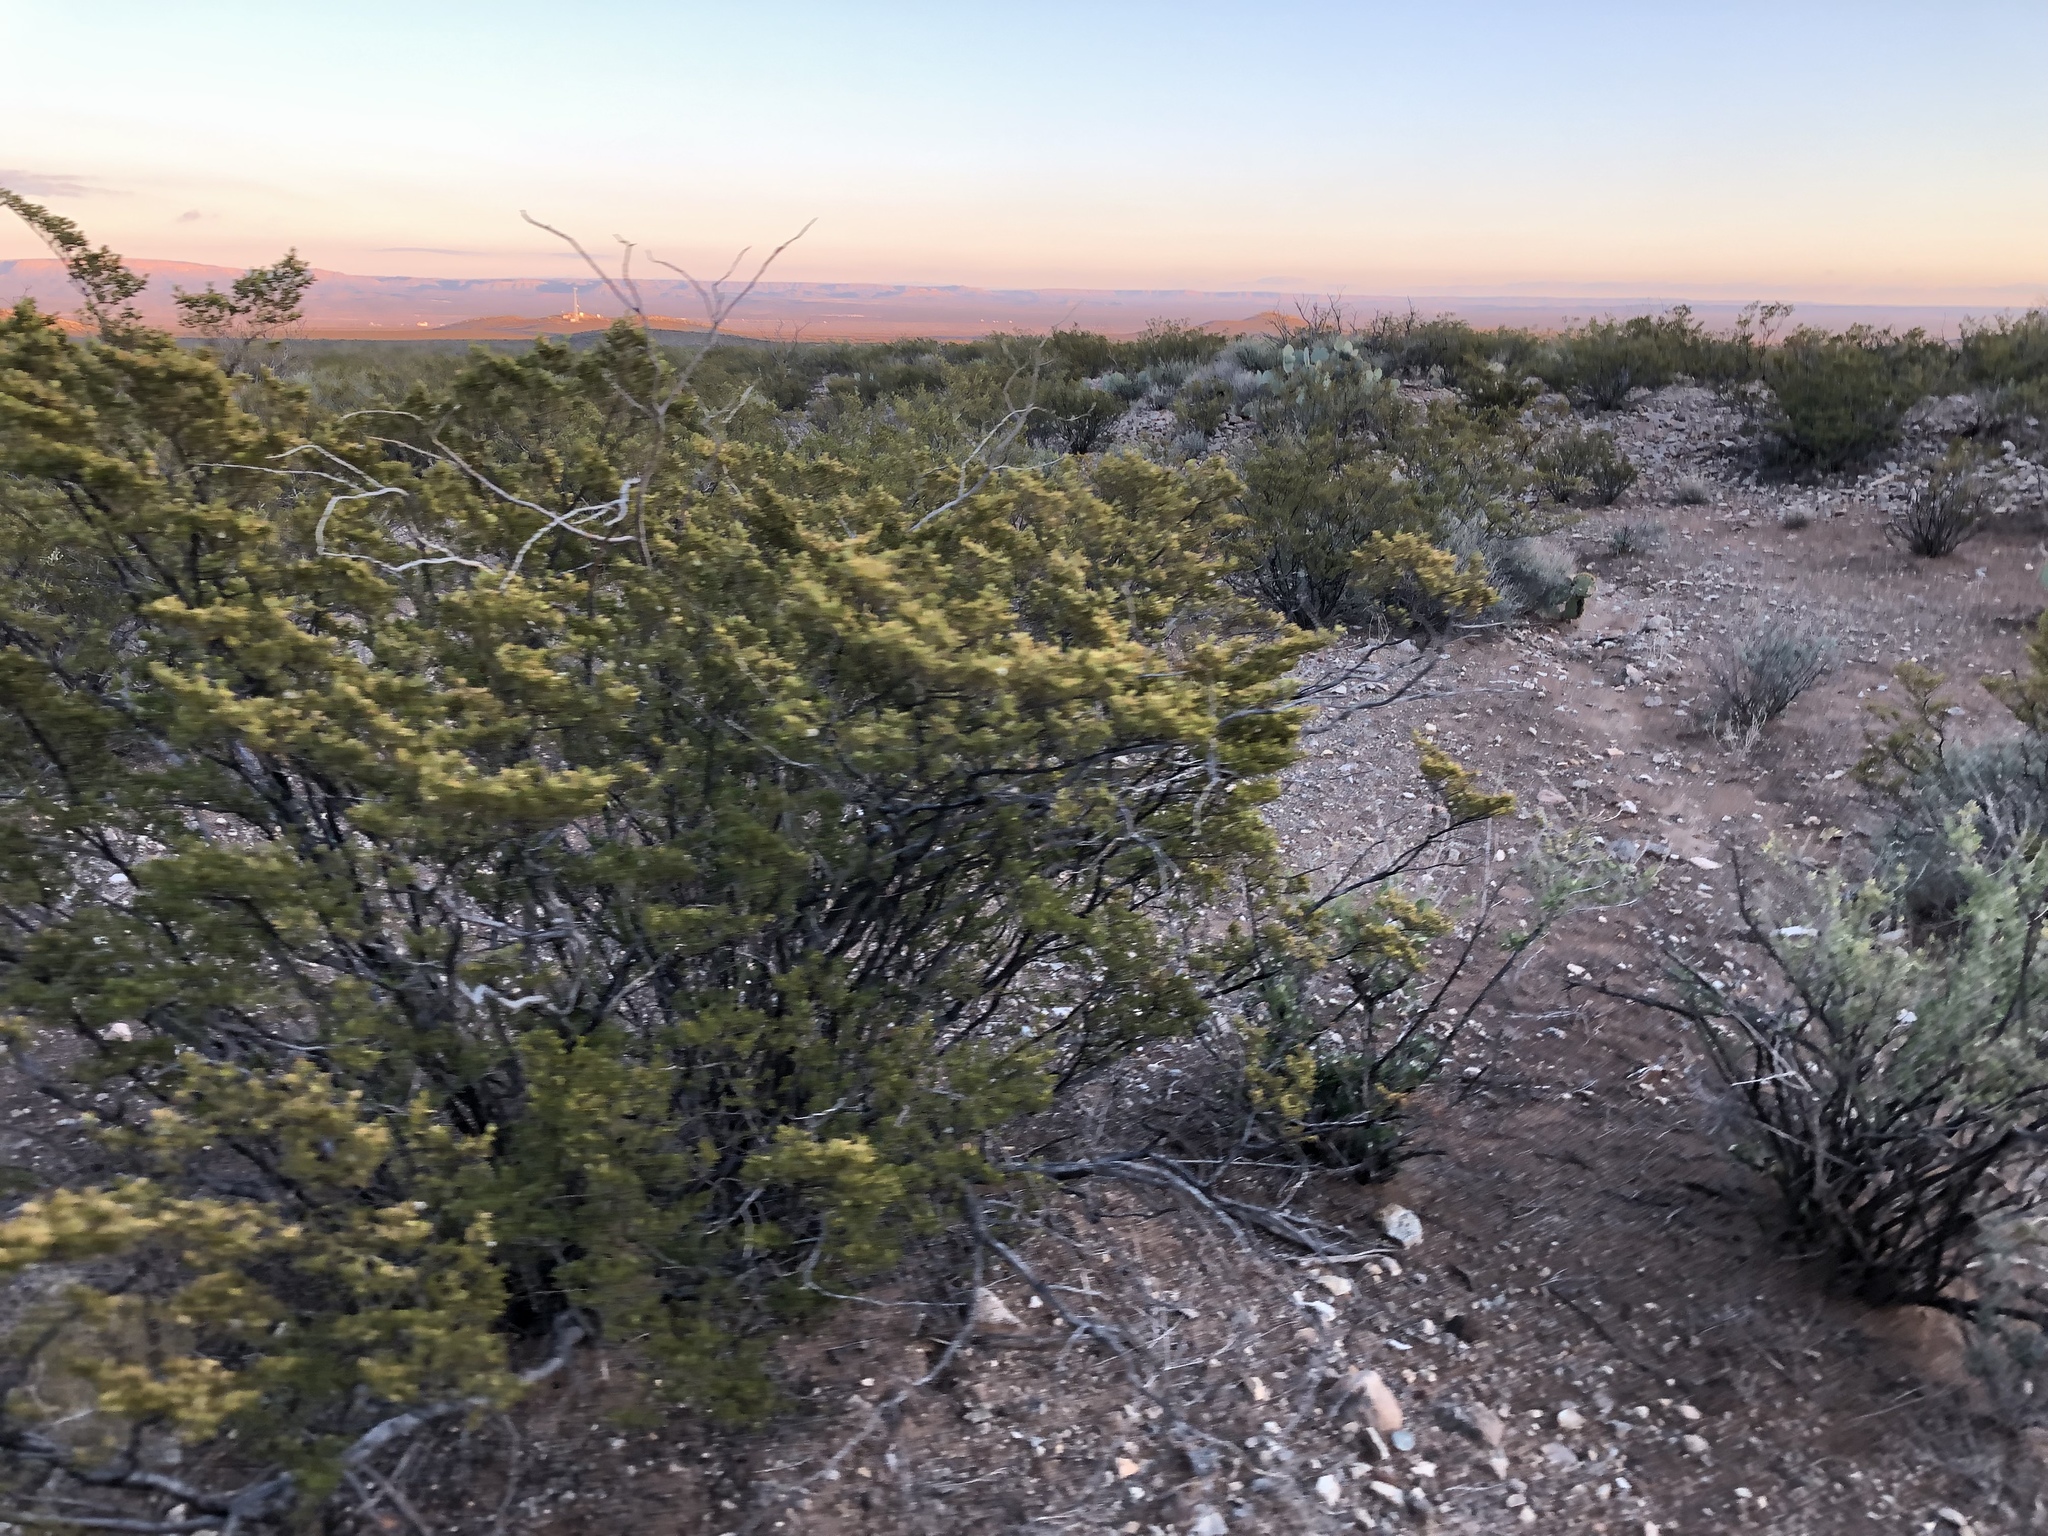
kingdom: Plantae
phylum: Tracheophyta
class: Magnoliopsida
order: Zygophyllales
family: Zygophyllaceae
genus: Larrea
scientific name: Larrea tridentata
